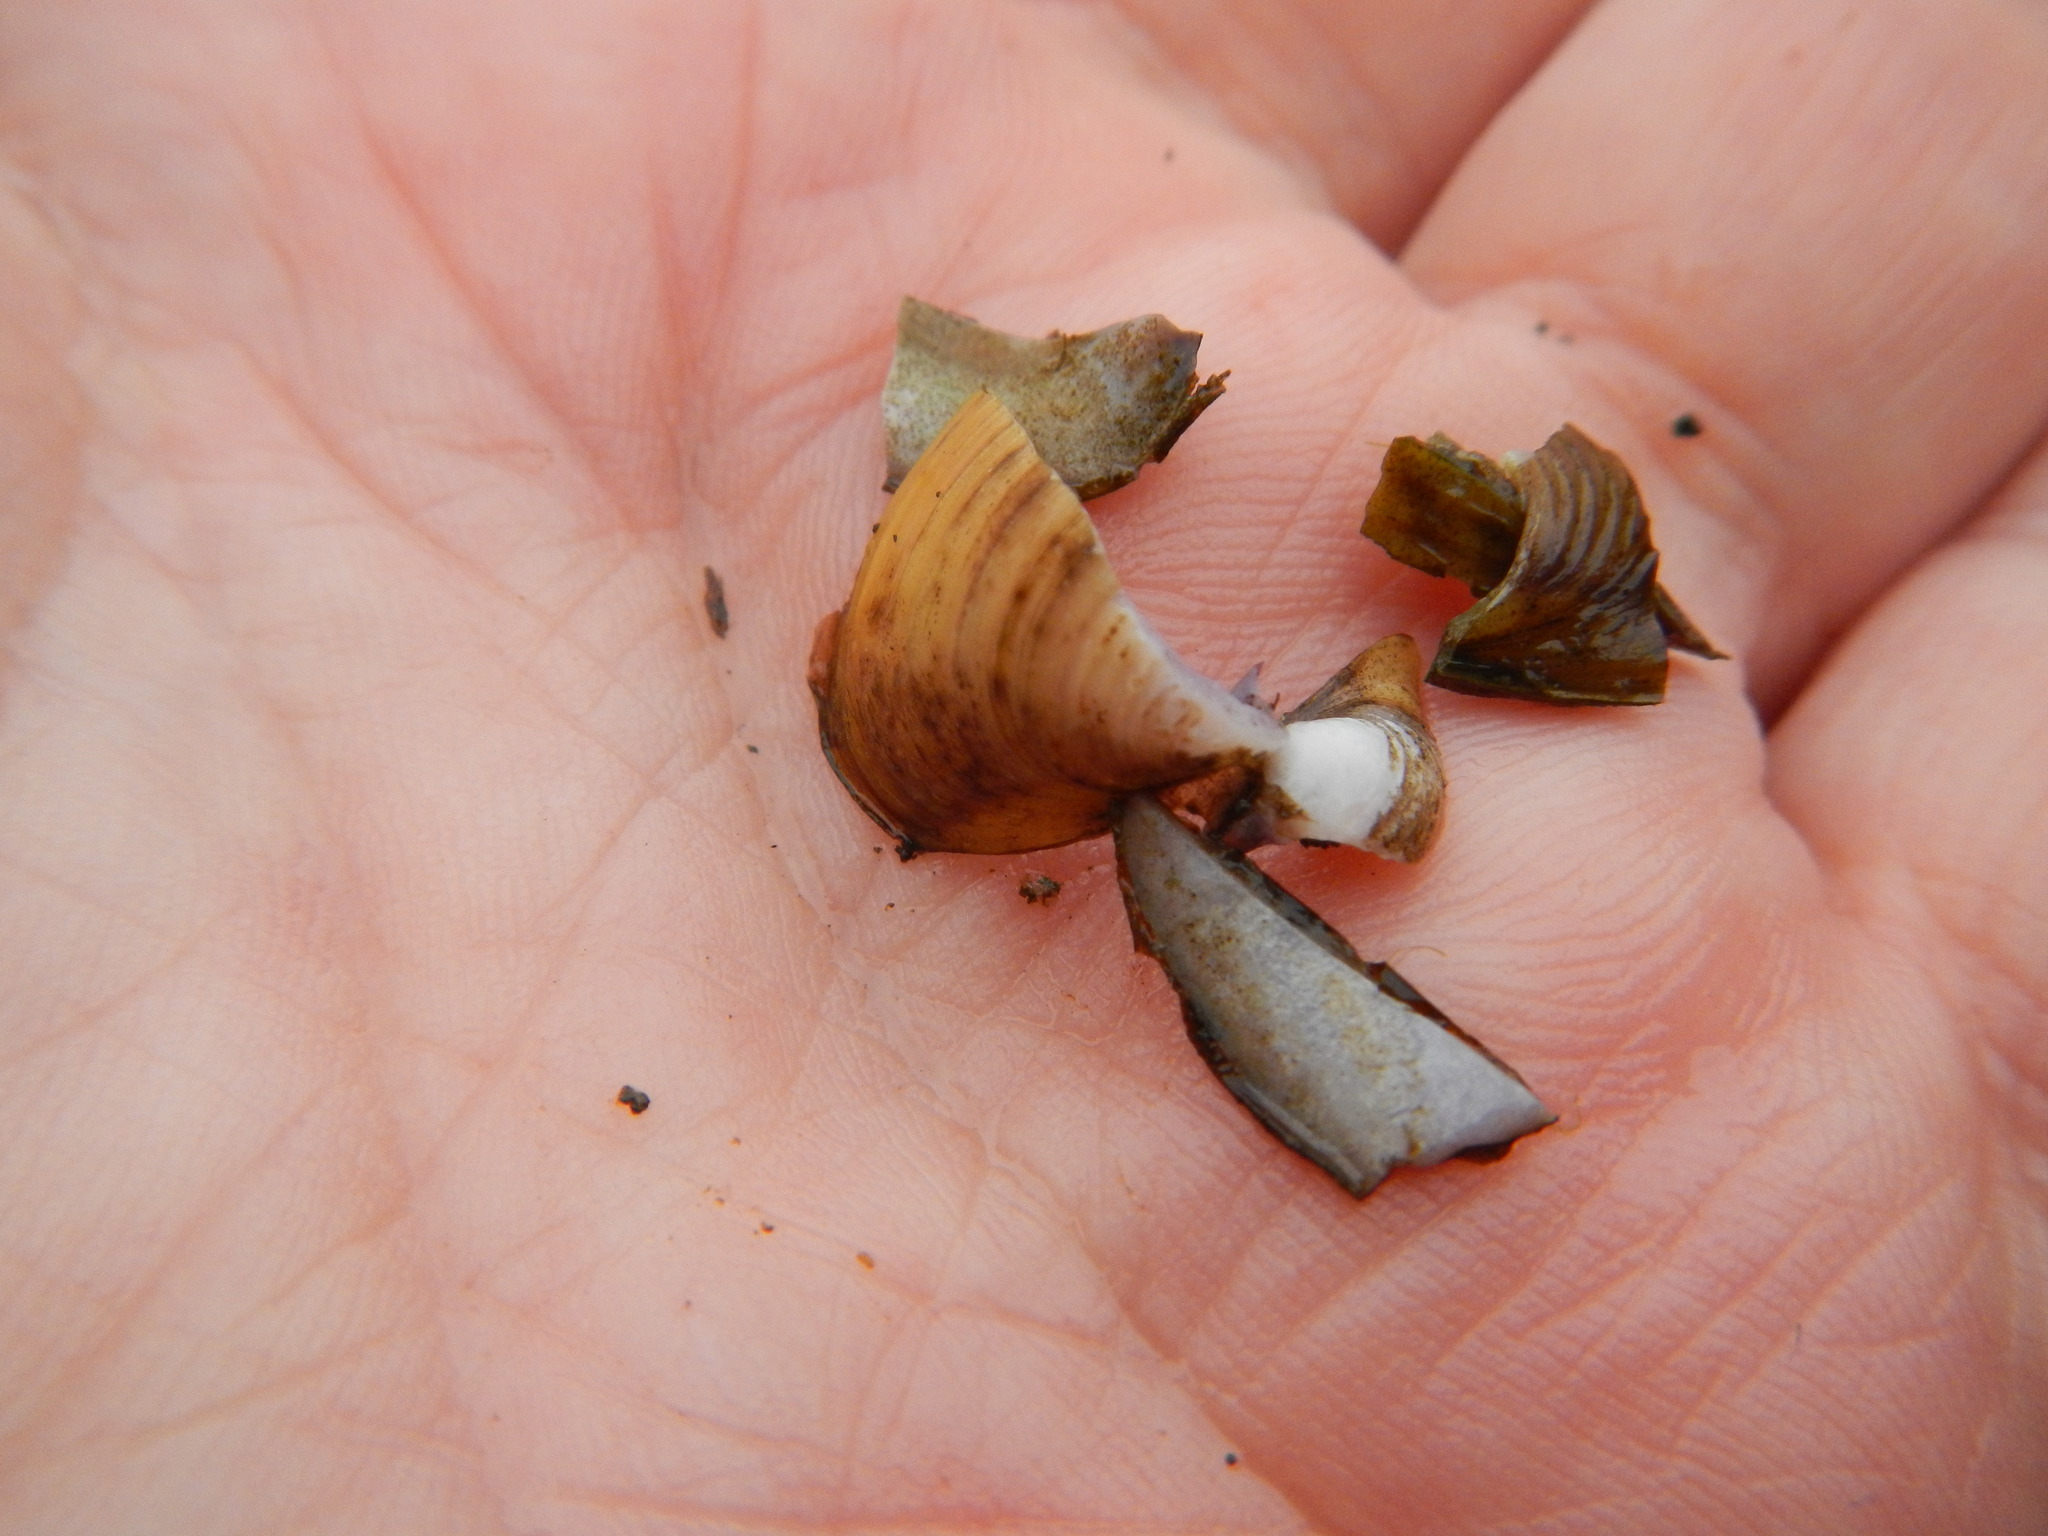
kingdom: Animalia
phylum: Mollusca
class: Bivalvia
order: Venerida
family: Cyrenidae
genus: Corbicula
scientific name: Corbicula fluminea
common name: Asian clam
